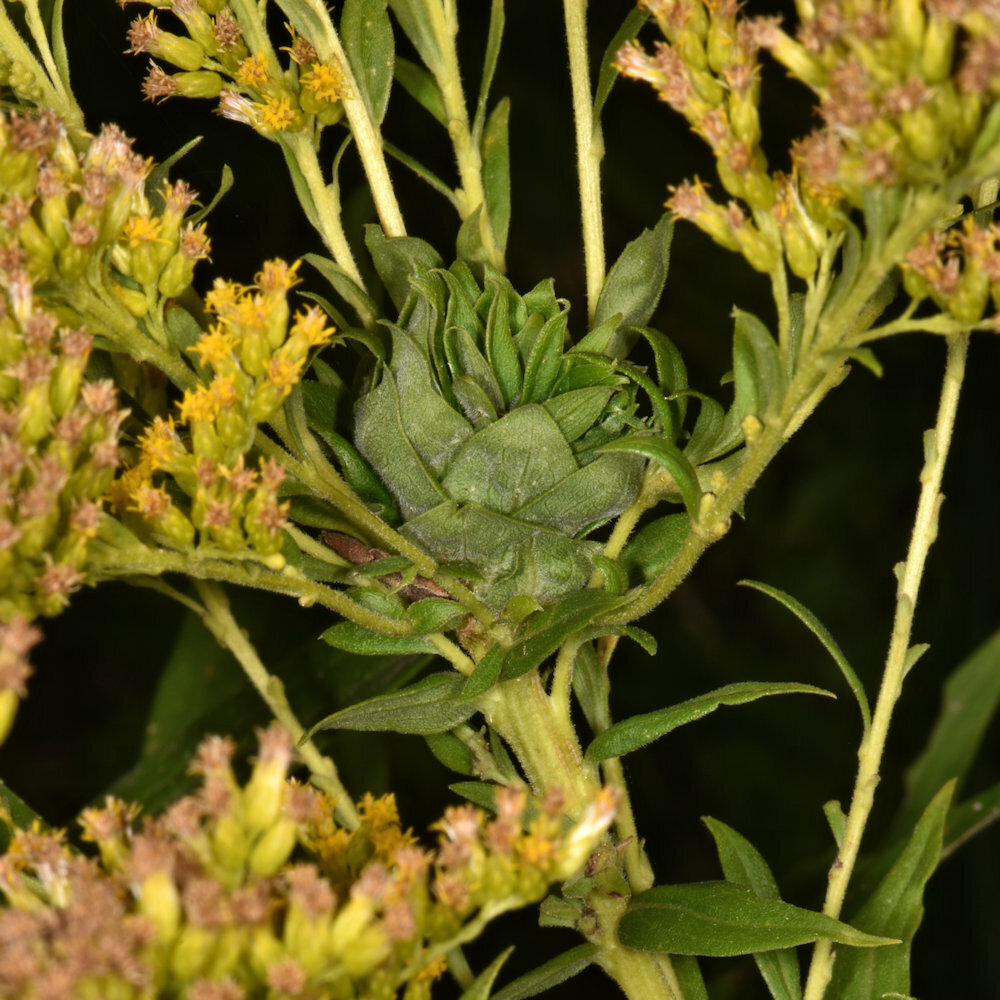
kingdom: Animalia
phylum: Arthropoda
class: Insecta
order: Diptera
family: Cecidomyiidae
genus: Rhopalomyia
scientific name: Rhopalomyia solidaginis
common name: Goldenrod bunch gall midge
